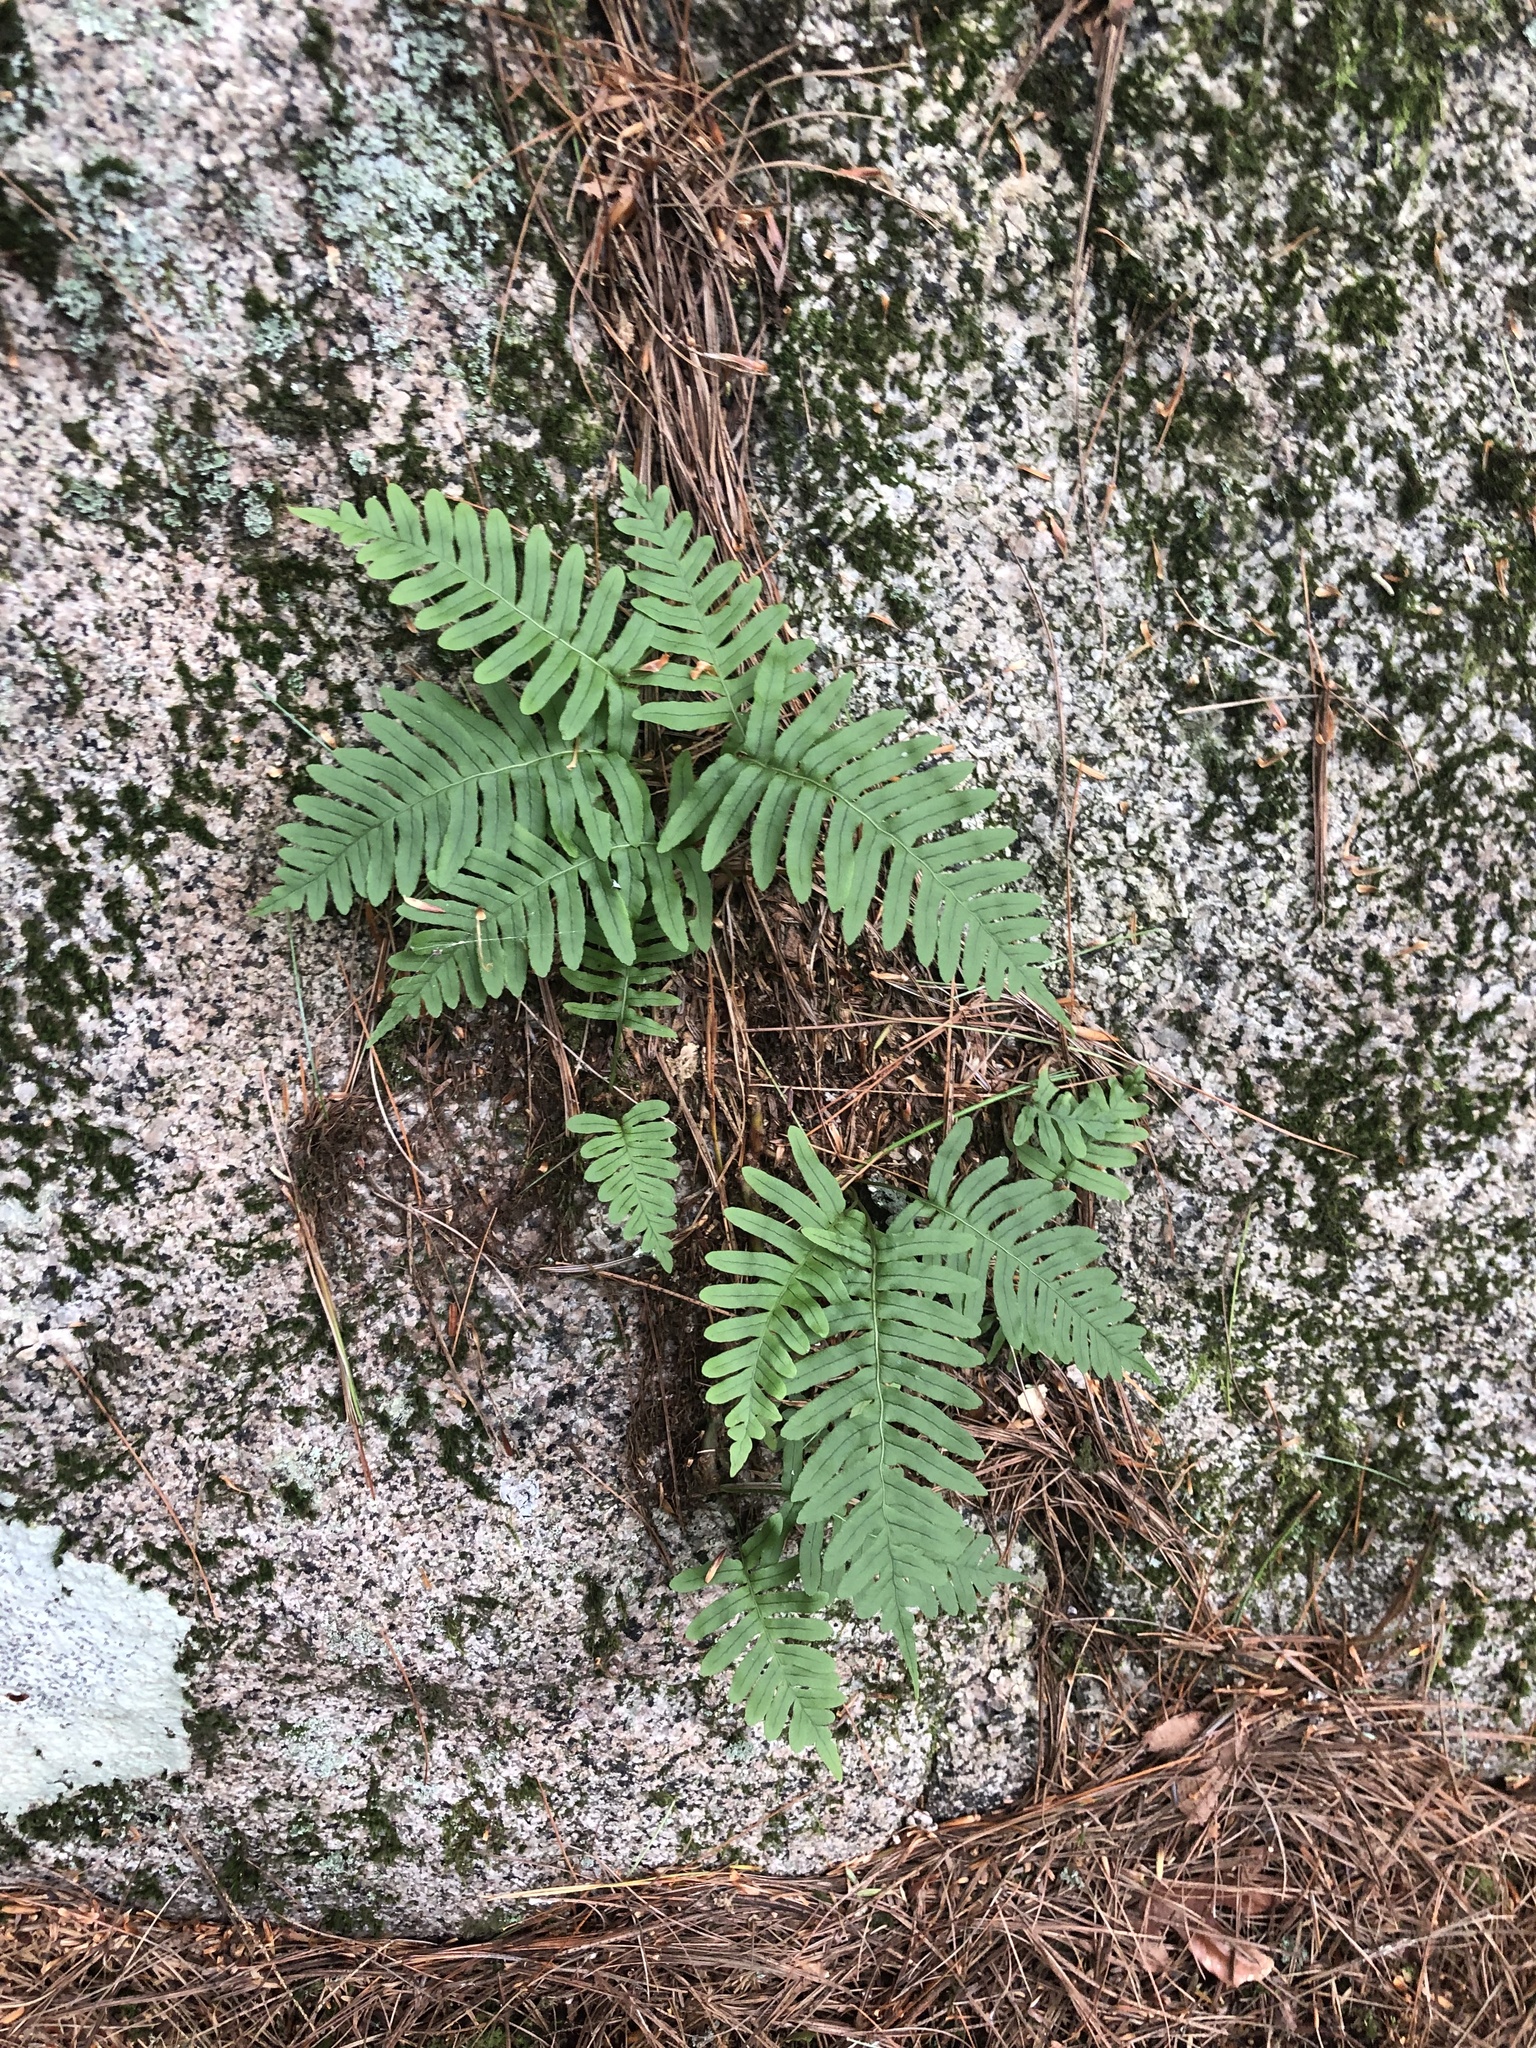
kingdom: Plantae
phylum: Tracheophyta
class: Polypodiopsida
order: Polypodiales
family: Polypodiaceae
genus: Polypodium
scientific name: Polypodium virginianum
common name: American wall fern
